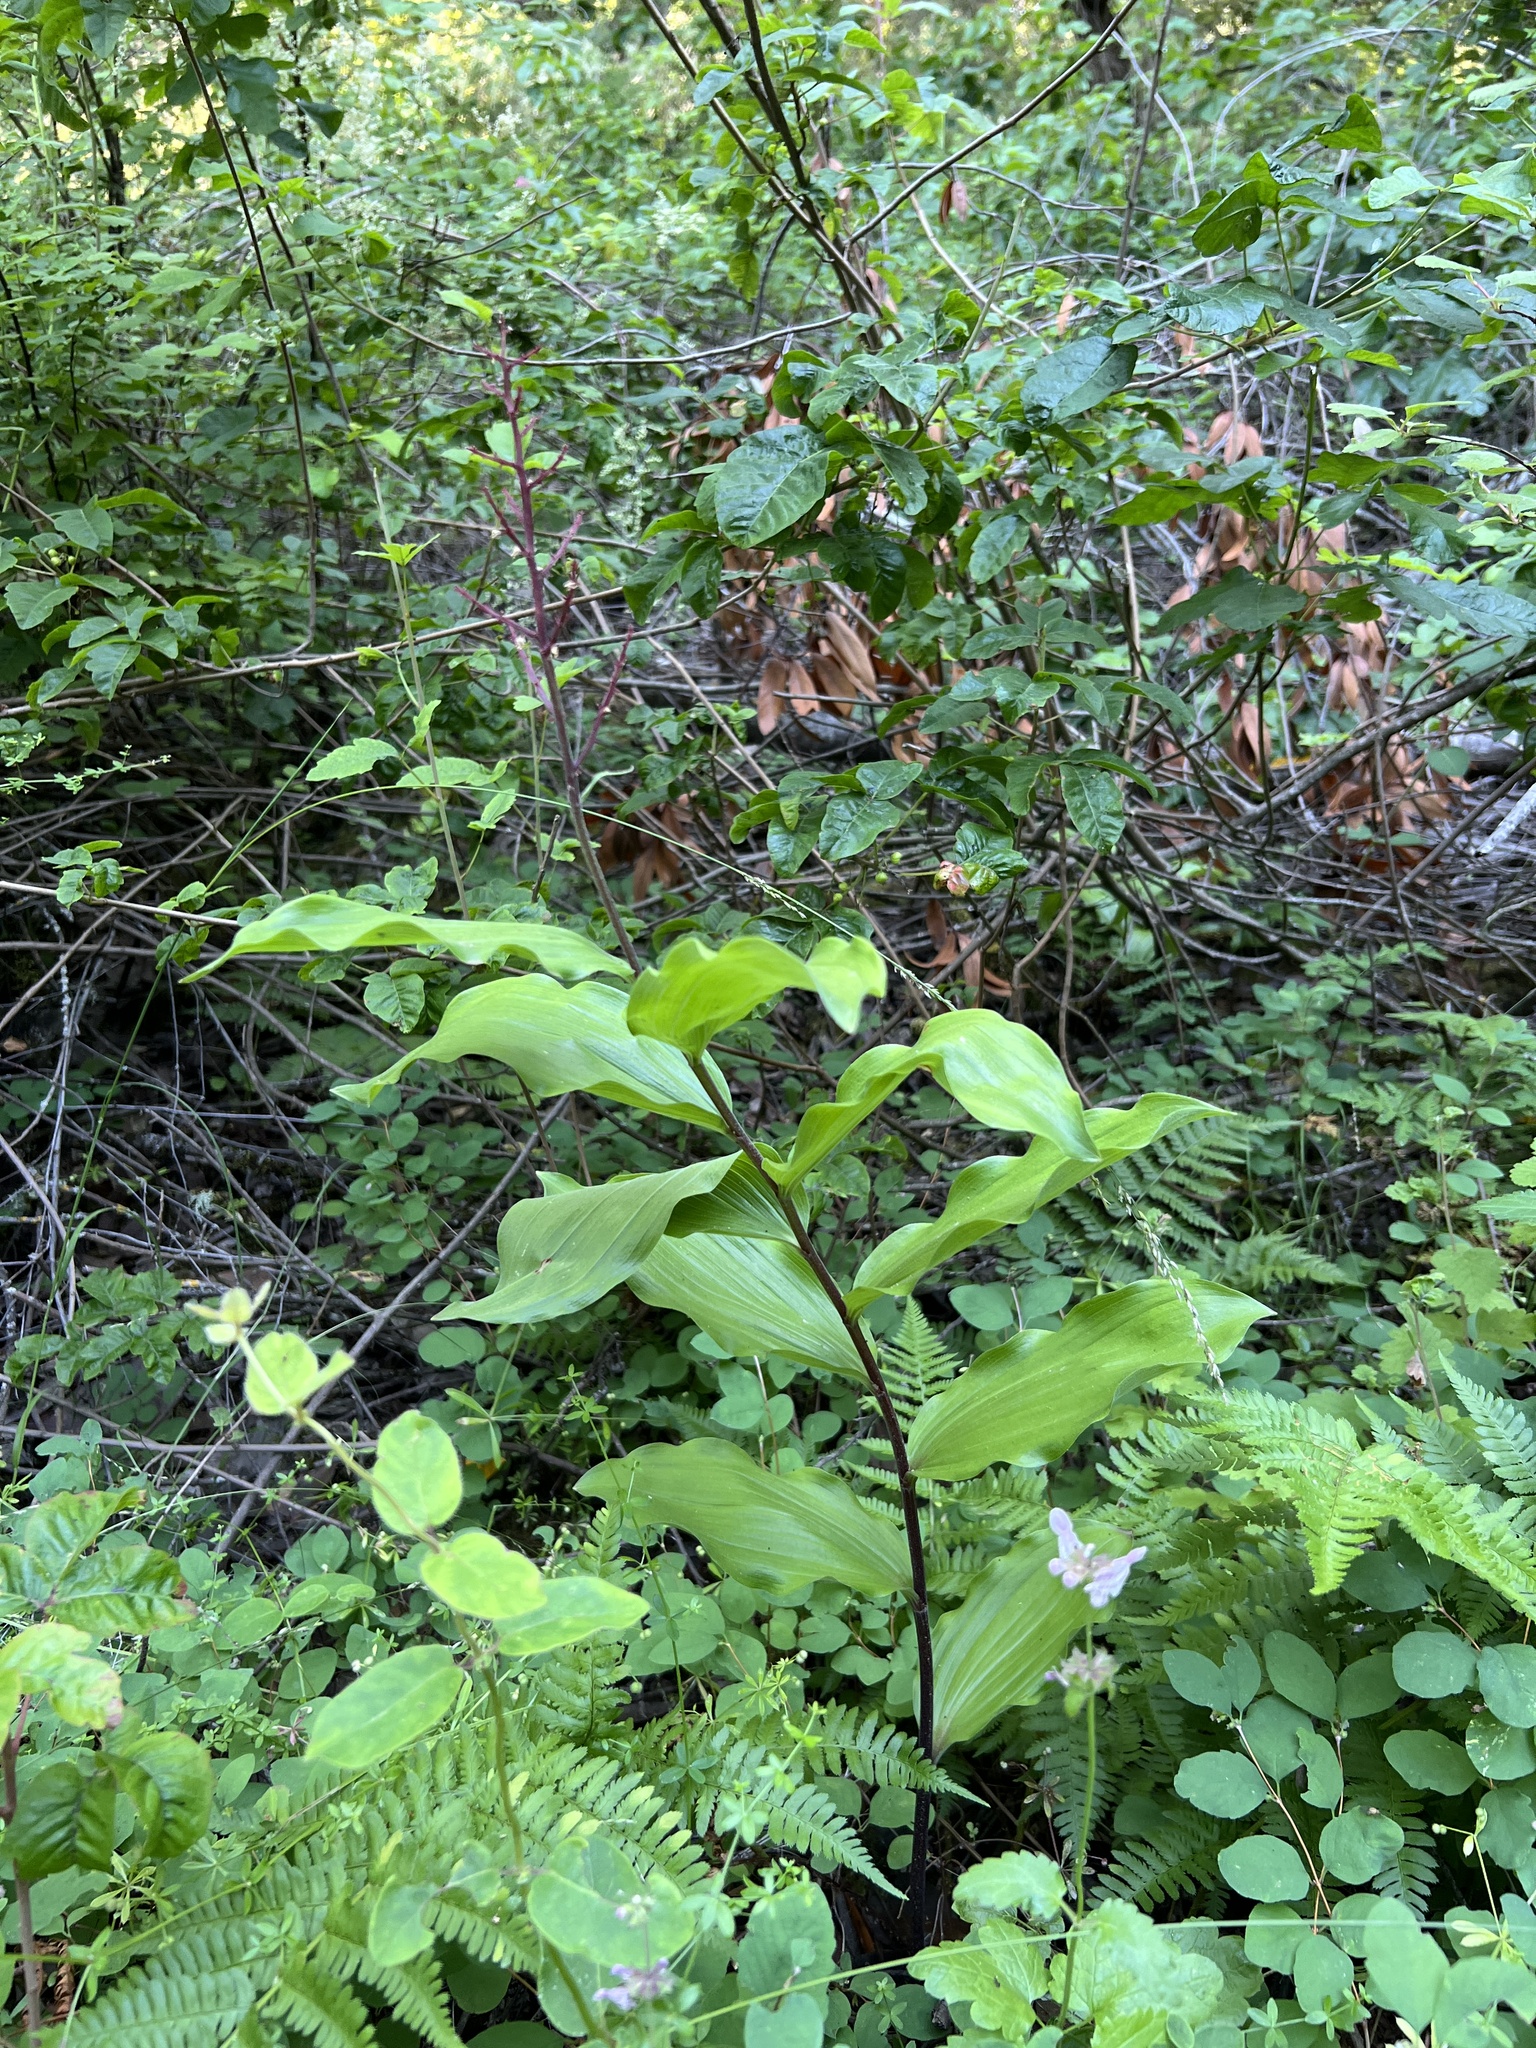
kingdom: Plantae
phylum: Tracheophyta
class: Liliopsida
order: Asparagales
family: Asparagaceae
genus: Maianthemum
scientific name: Maianthemum racemosum
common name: False spikenard
